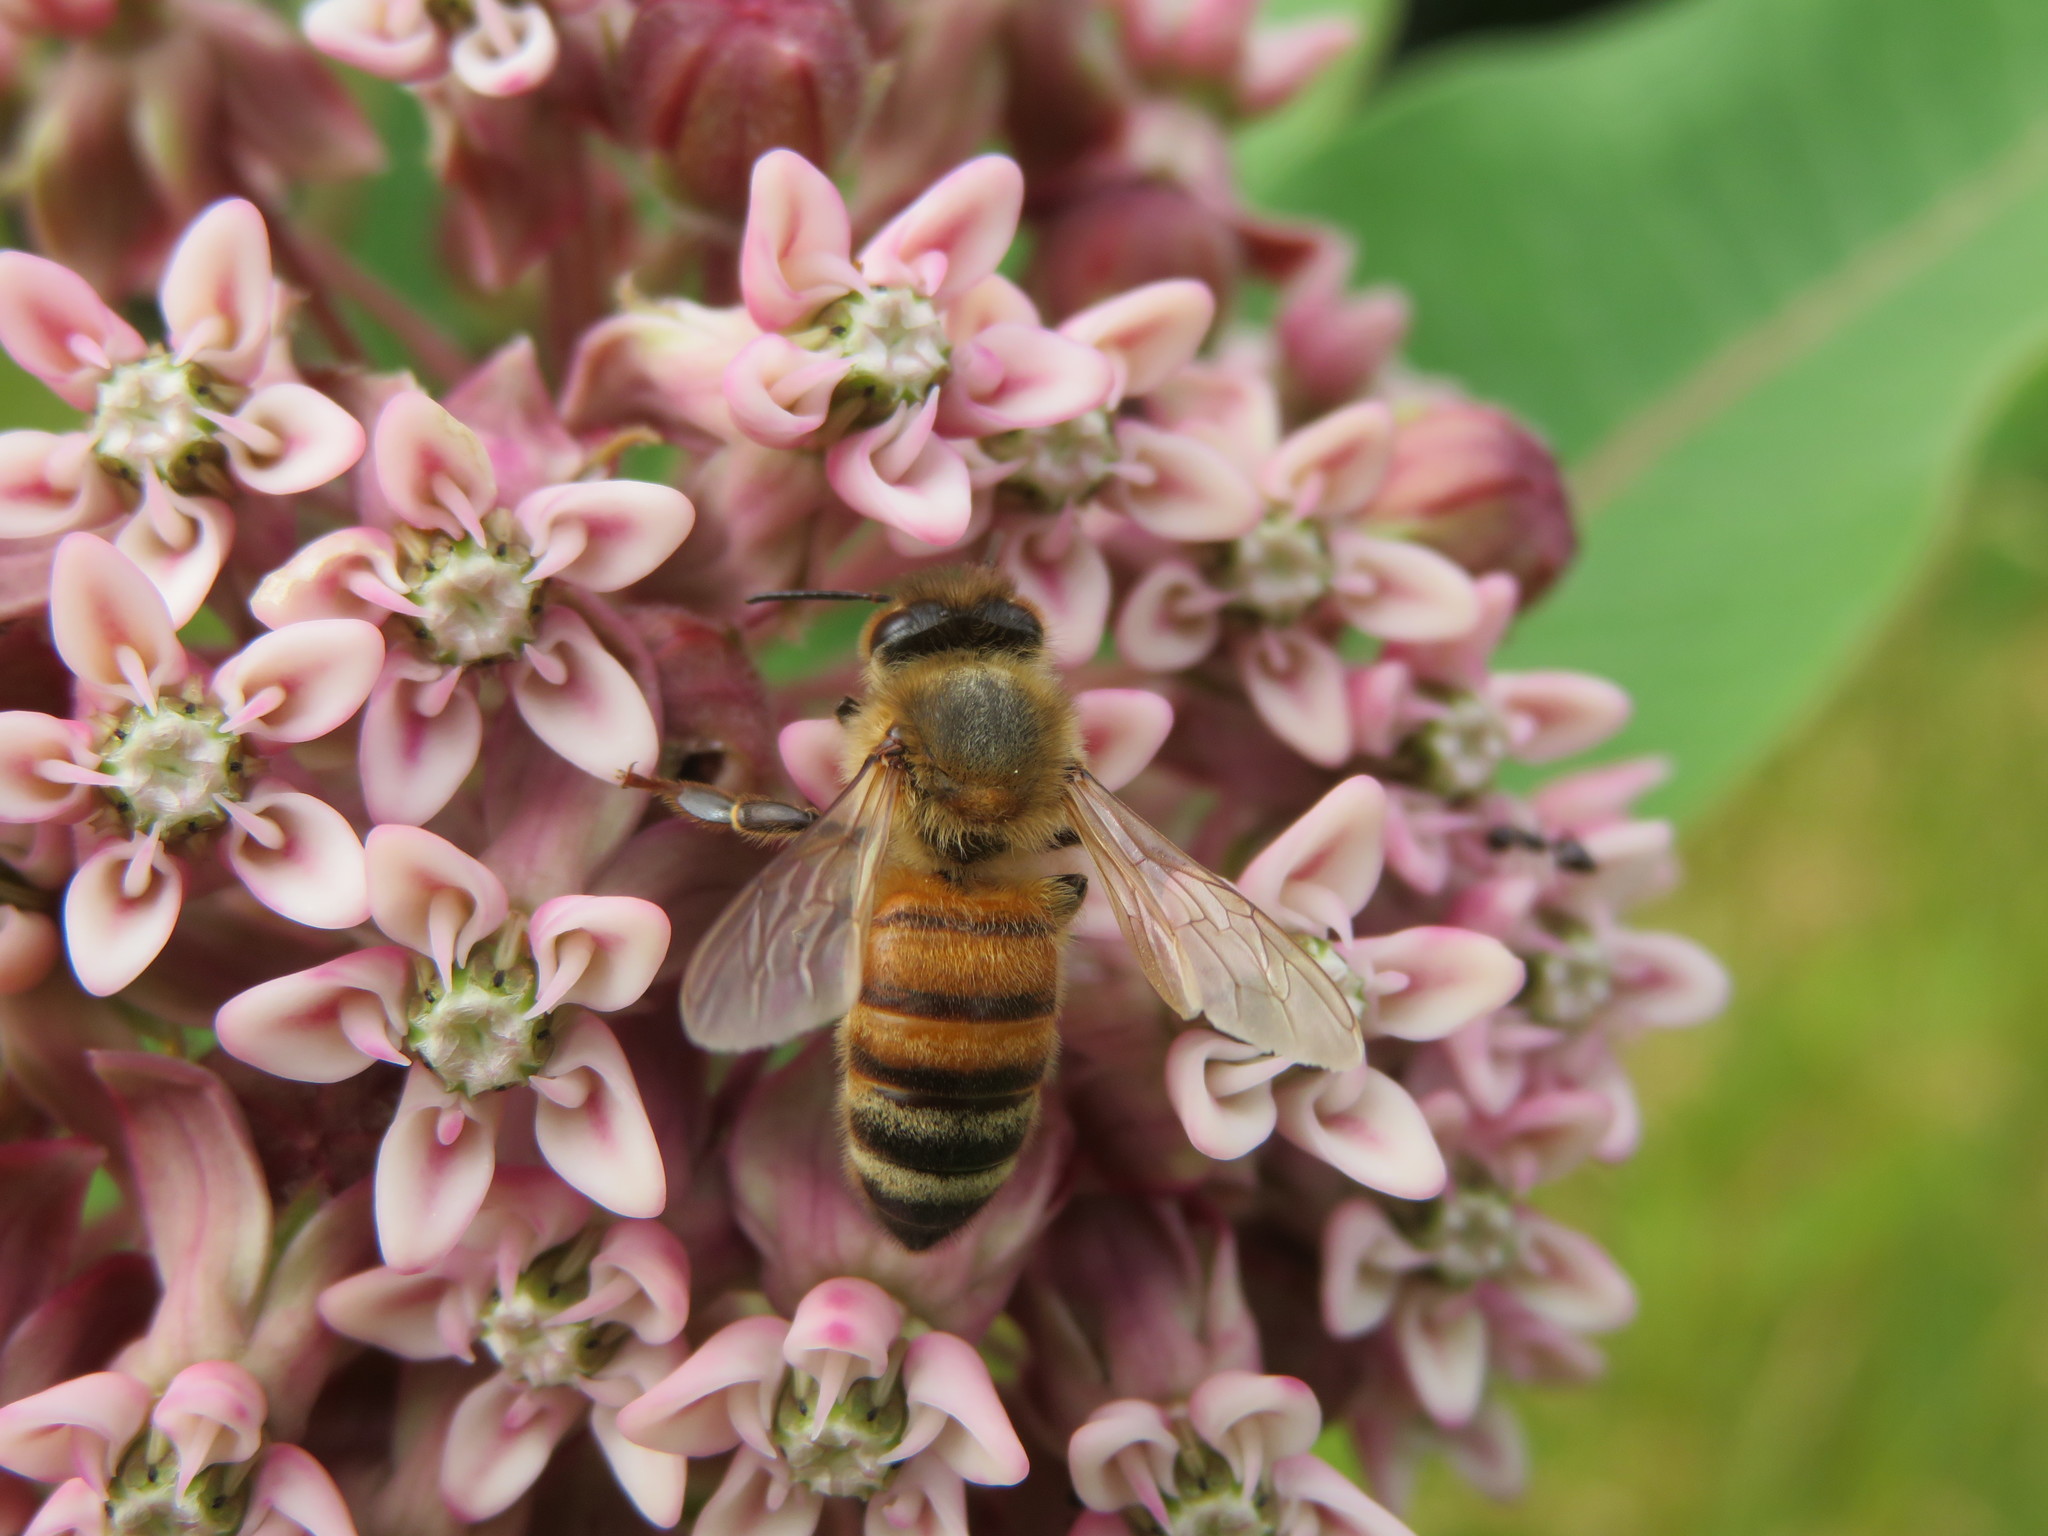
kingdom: Animalia
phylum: Arthropoda
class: Insecta
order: Hymenoptera
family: Apidae
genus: Apis
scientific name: Apis mellifera
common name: Honey bee
